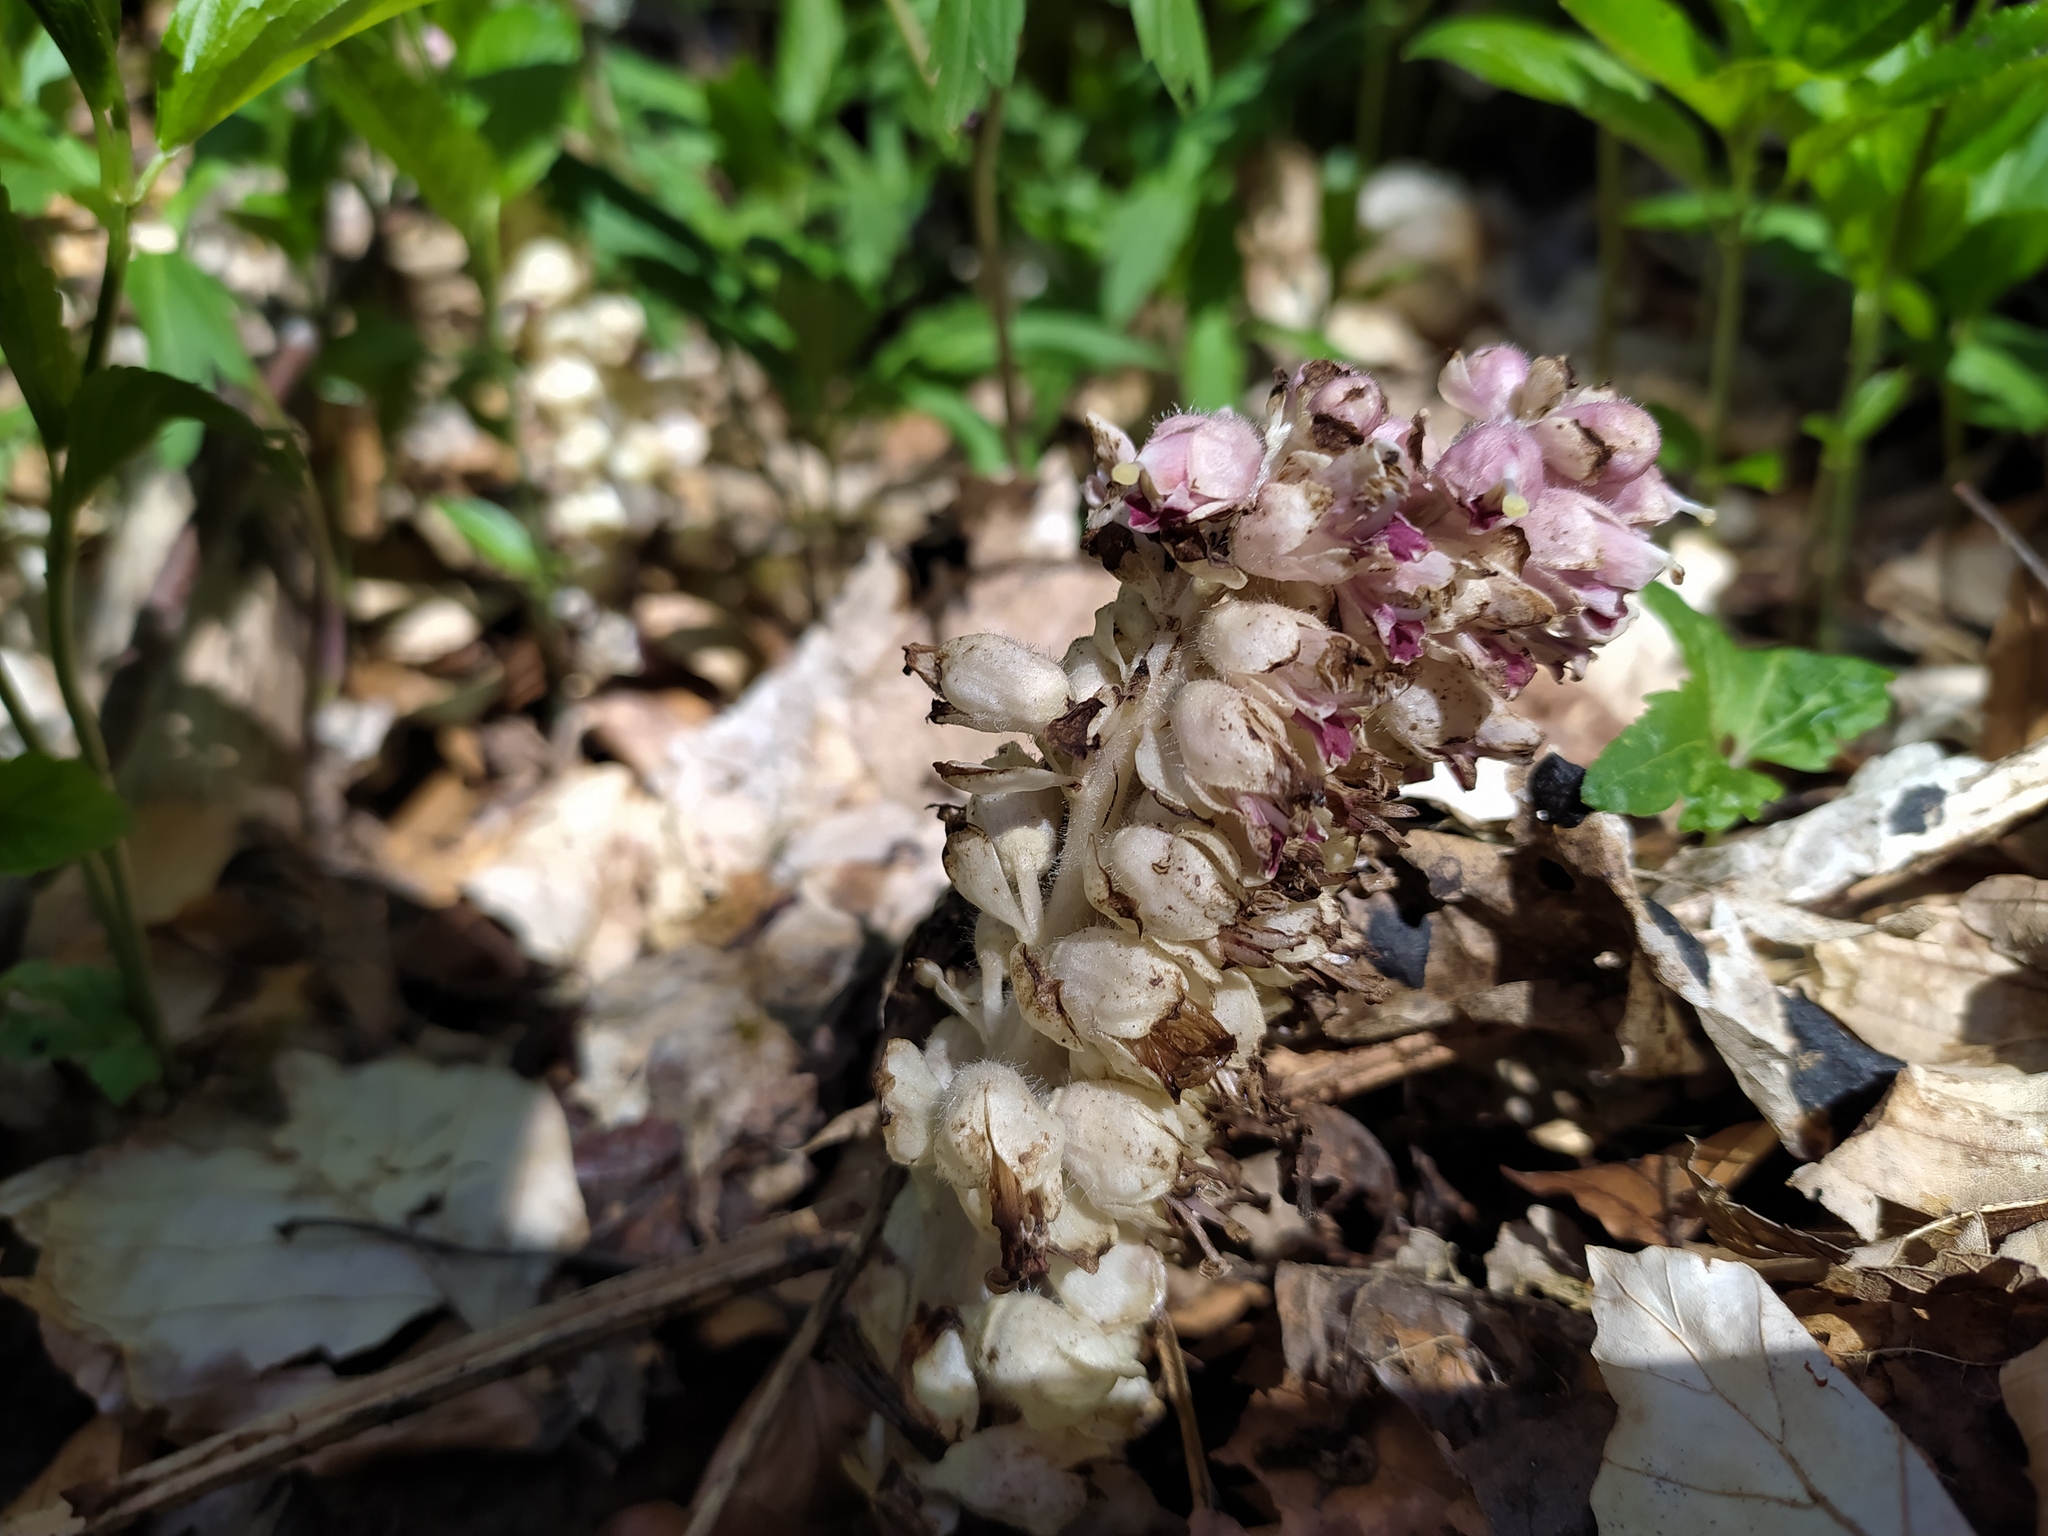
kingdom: Plantae
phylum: Tracheophyta
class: Magnoliopsida
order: Lamiales
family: Orobanchaceae
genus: Lathraea
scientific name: Lathraea squamaria
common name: Toothwort
